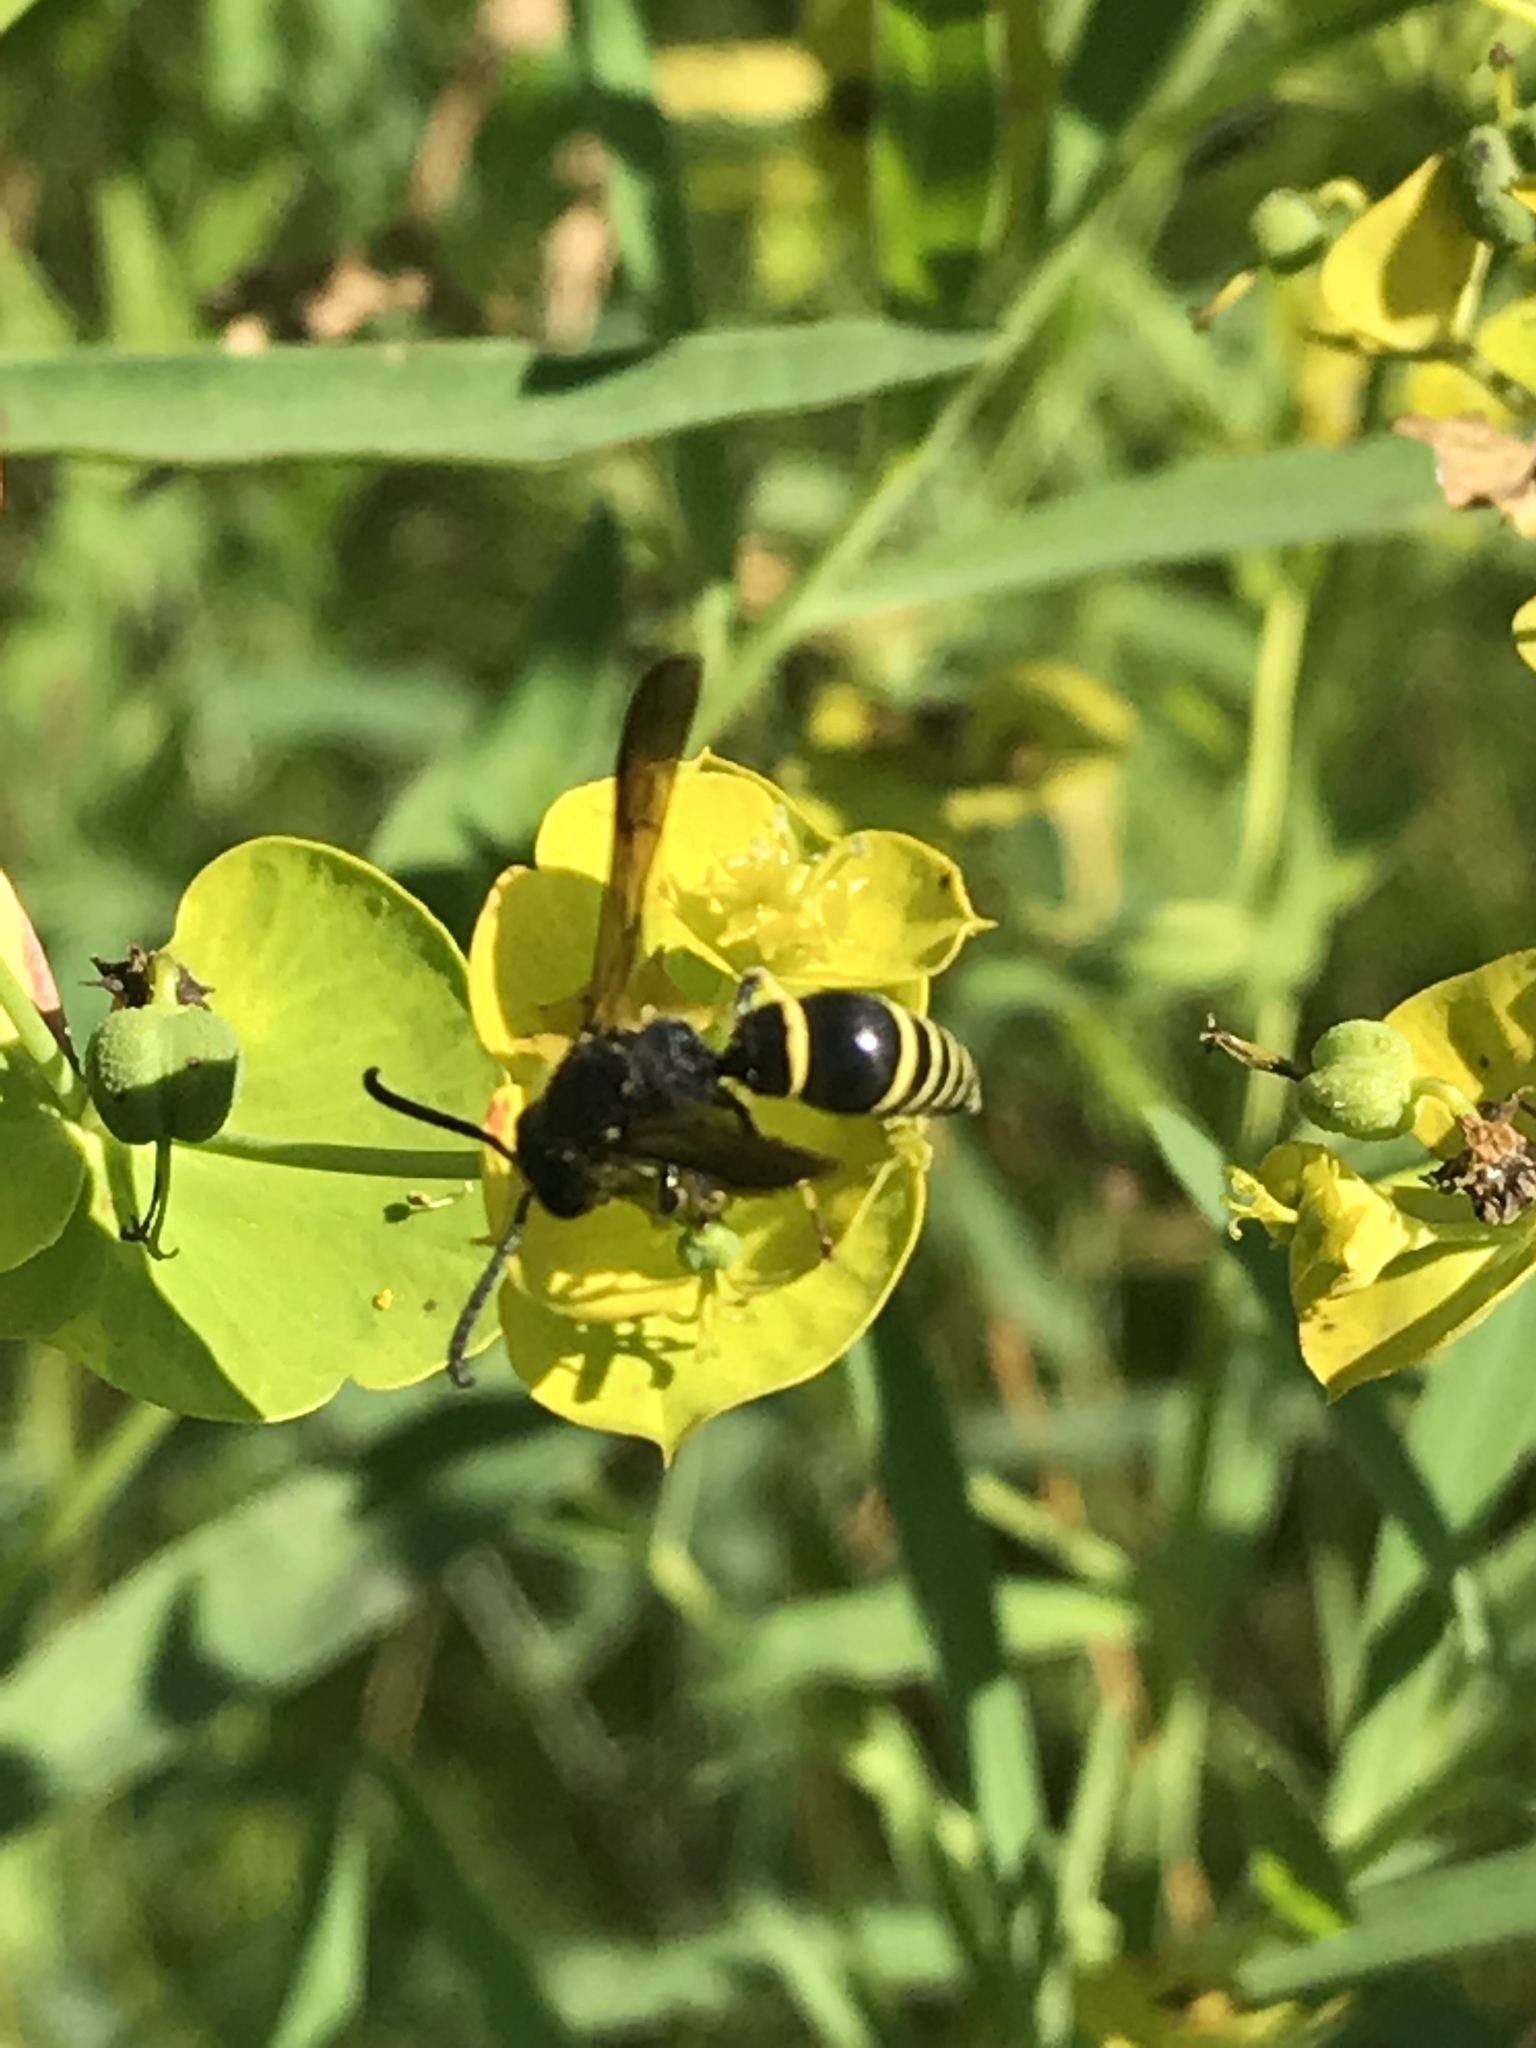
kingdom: Animalia
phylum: Arthropoda
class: Insecta
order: Hymenoptera
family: Vespidae
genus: Ancistrocerus
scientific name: Ancistrocerus
